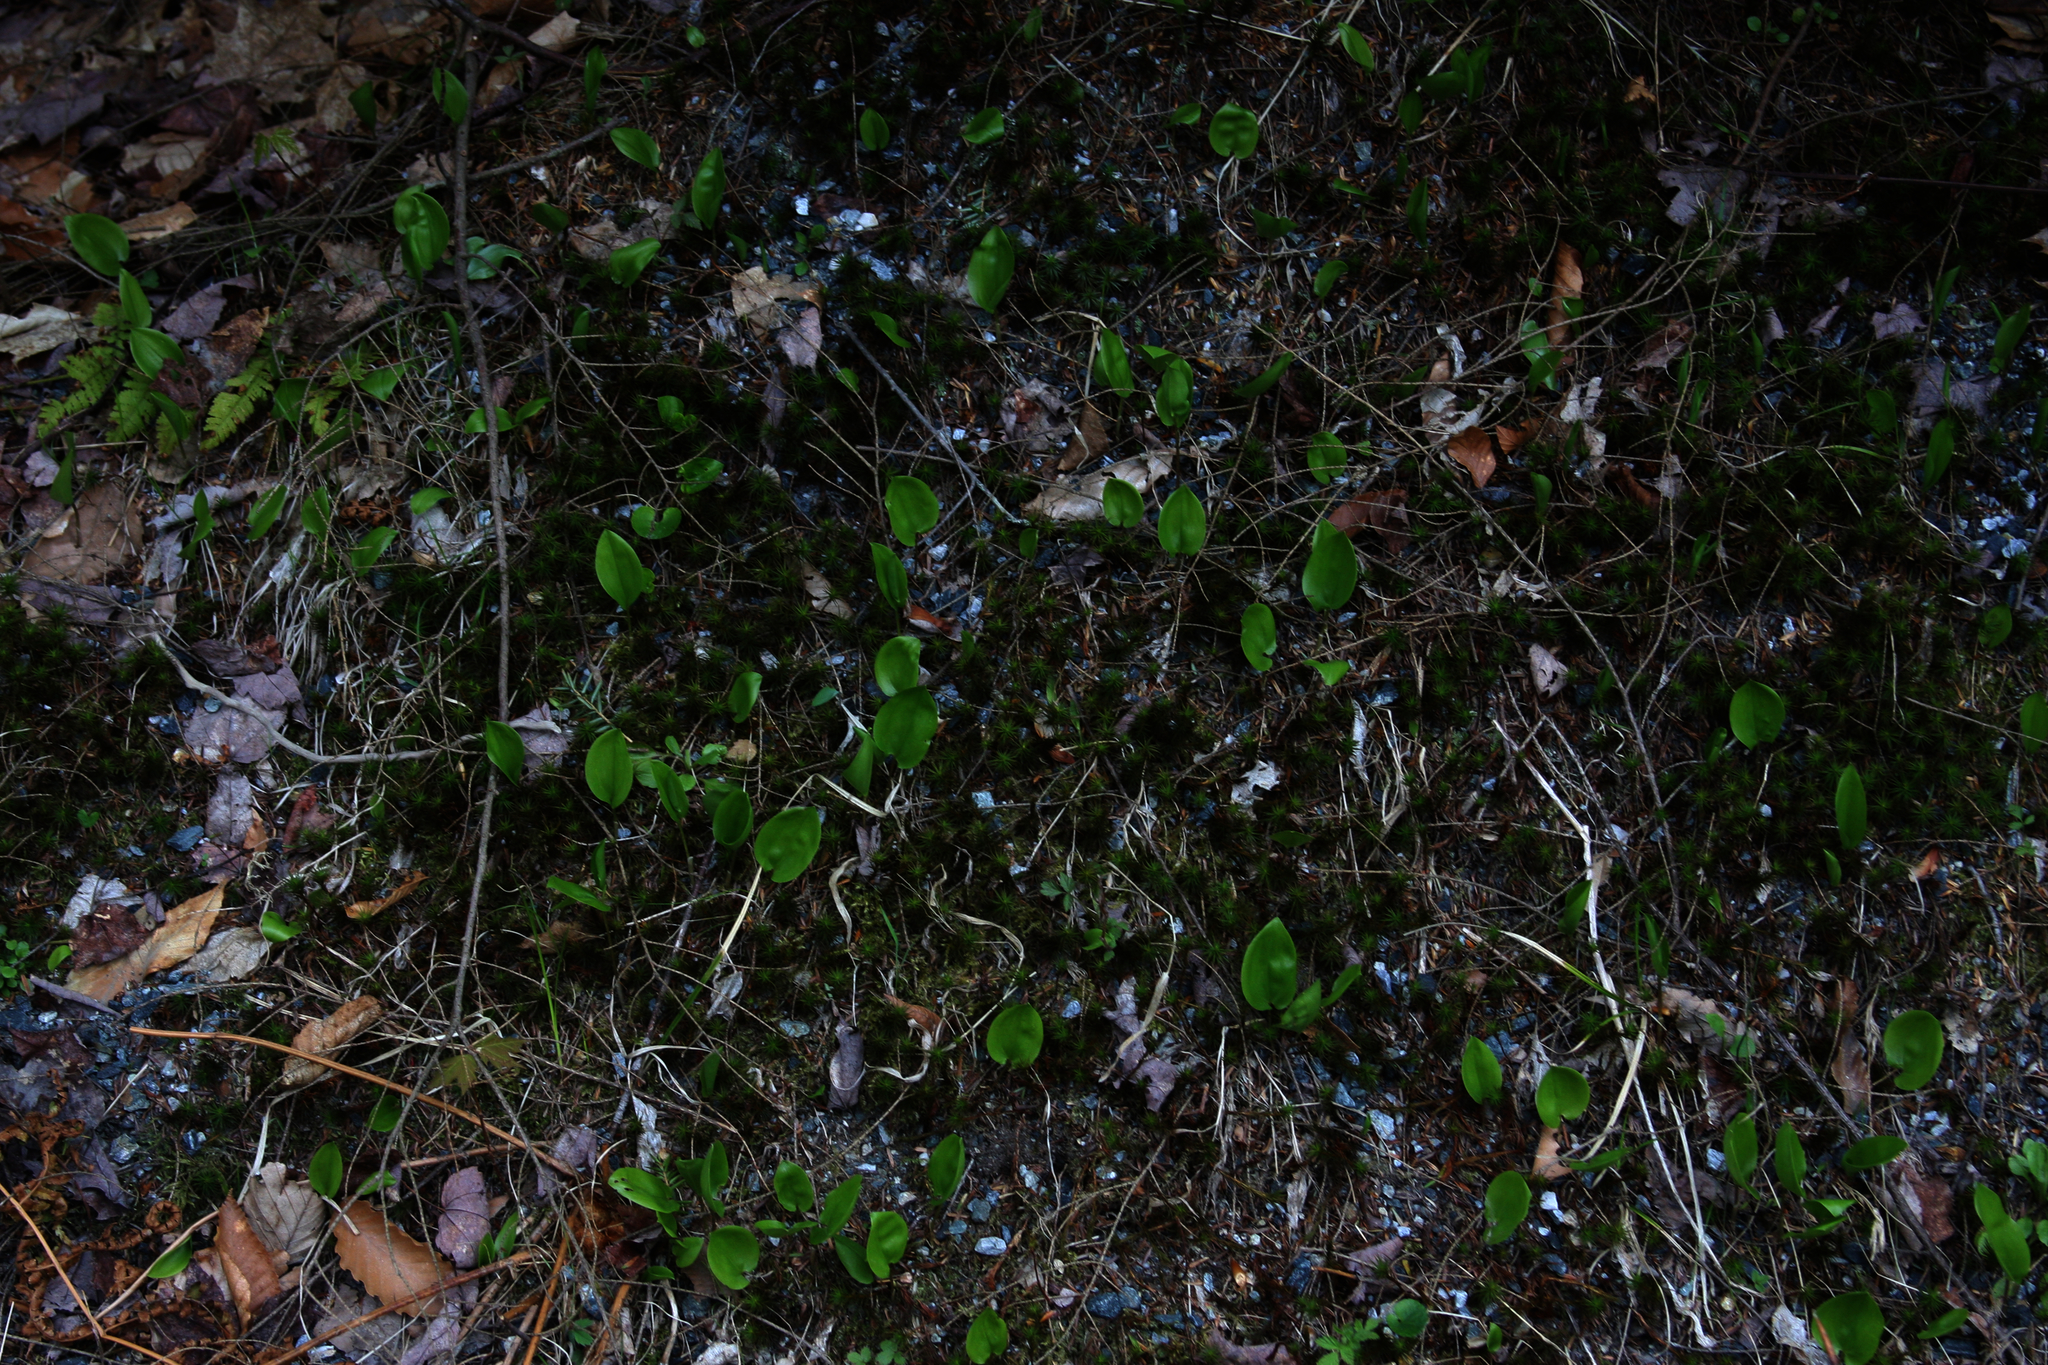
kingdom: Plantae
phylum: Tracheophyta
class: Liliopsida
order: Asparagales
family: Asparagaceae
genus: Maianthemum
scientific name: Maianthemum canadense
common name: False lily-of-the-valley
